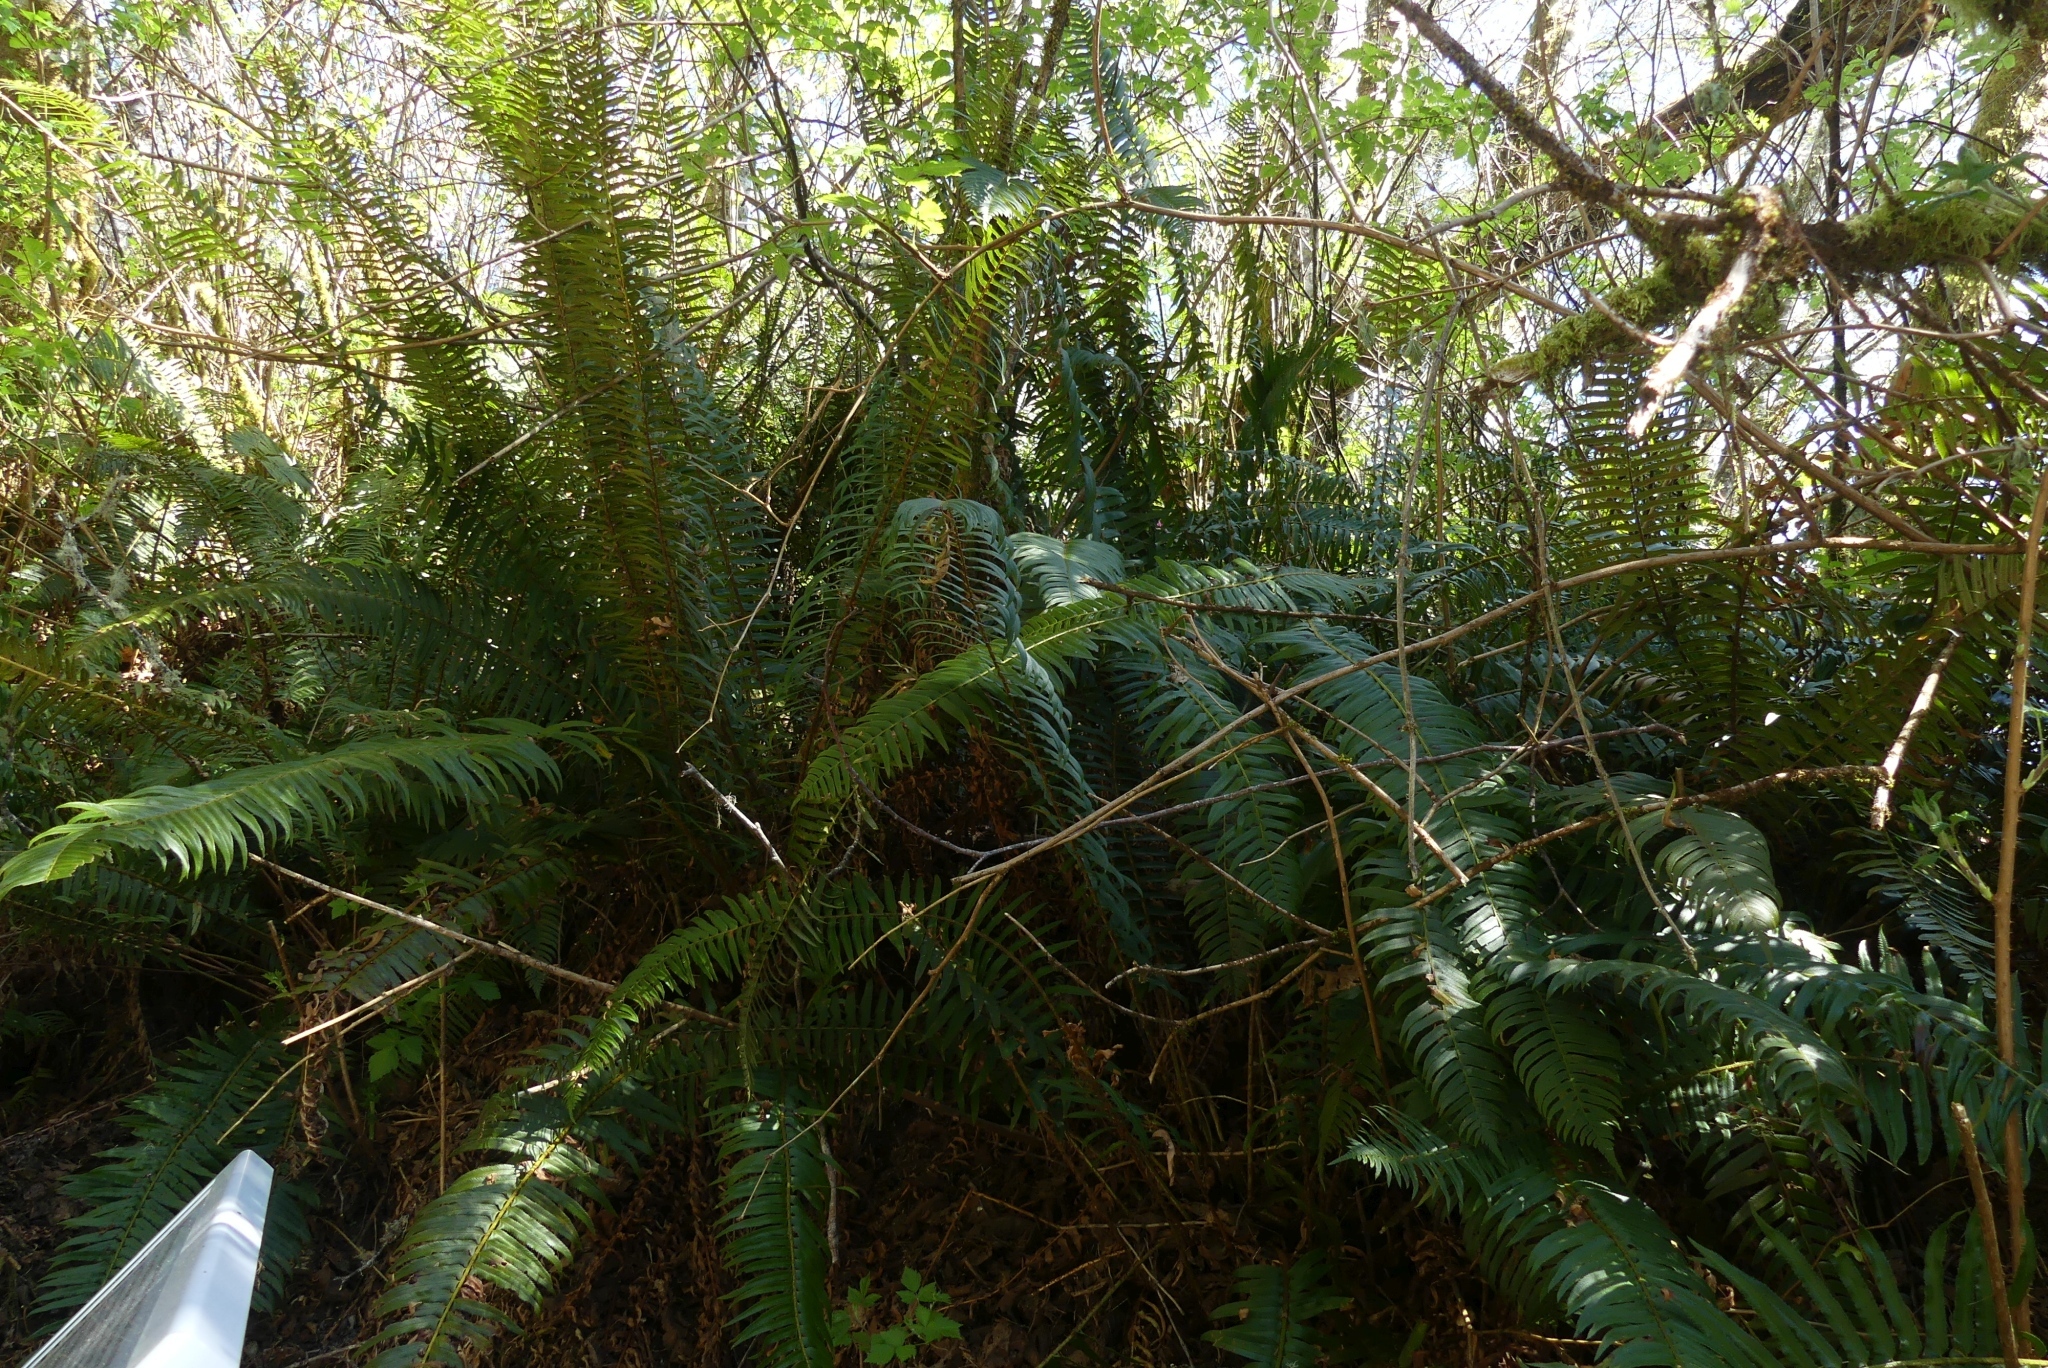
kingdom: Plantae
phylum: Tracheophyta
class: Polypodiopsida
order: Polypodiales
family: Dryopteridaceae
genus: Polystichum
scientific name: Polystichum munitum
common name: Western sword-fern
